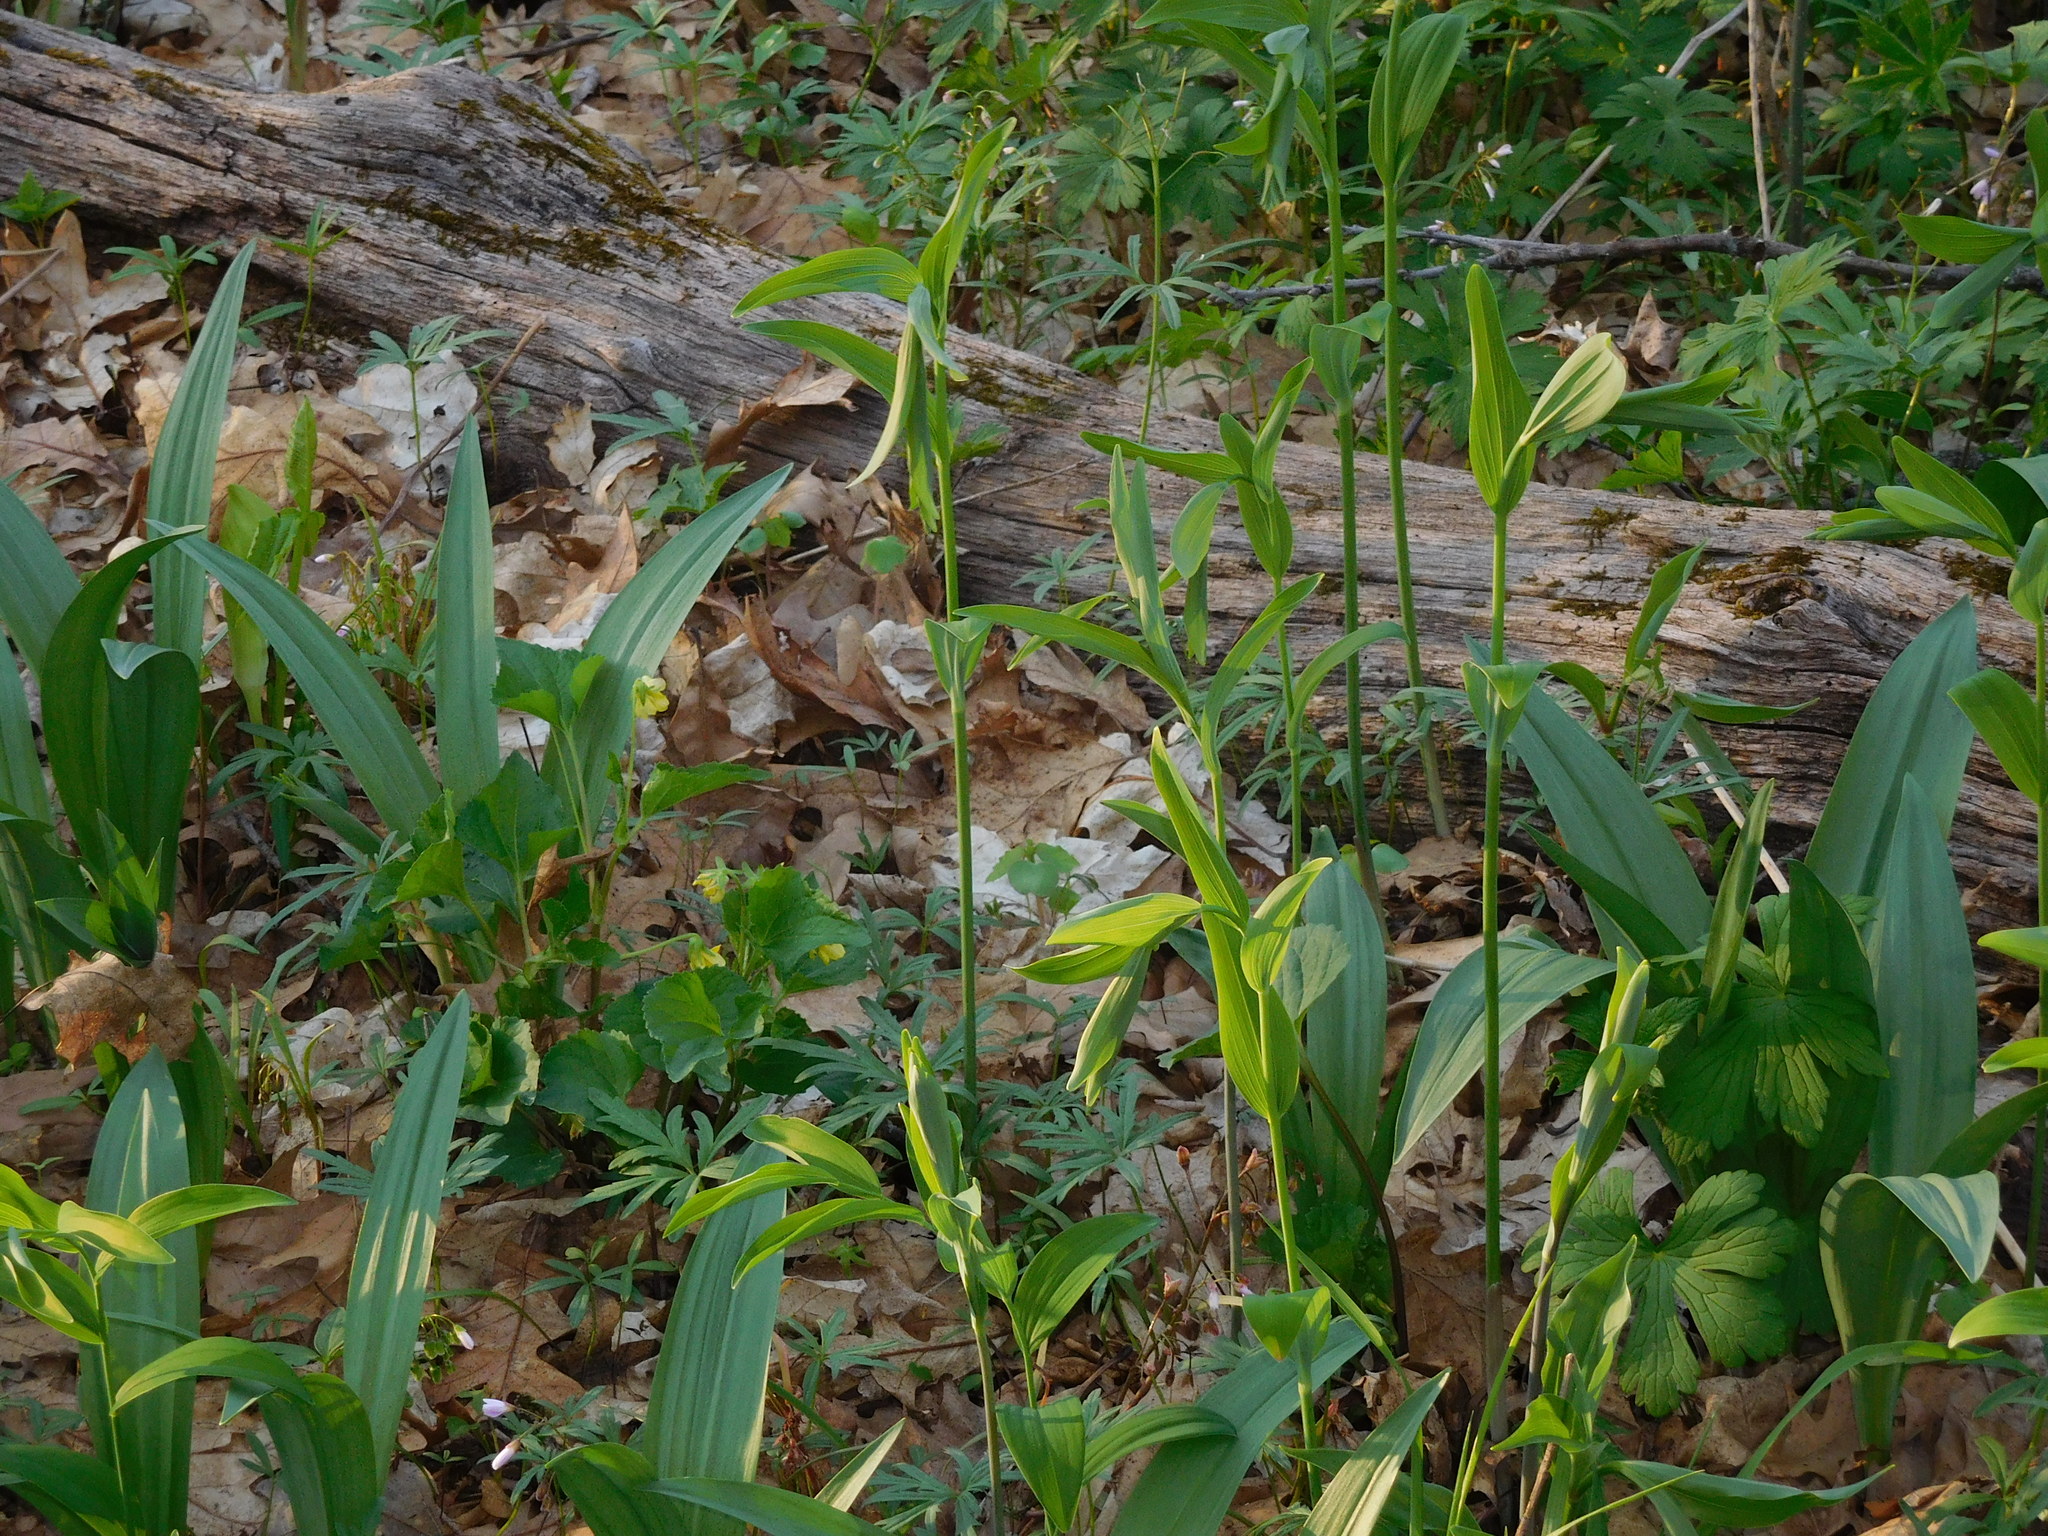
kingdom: Plantae
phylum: Tracheophyta
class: Liliopsida
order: Asparagales
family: Asparagaceae
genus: Polygonatum
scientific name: Polygonatum biflorum
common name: American solomon's-seal
